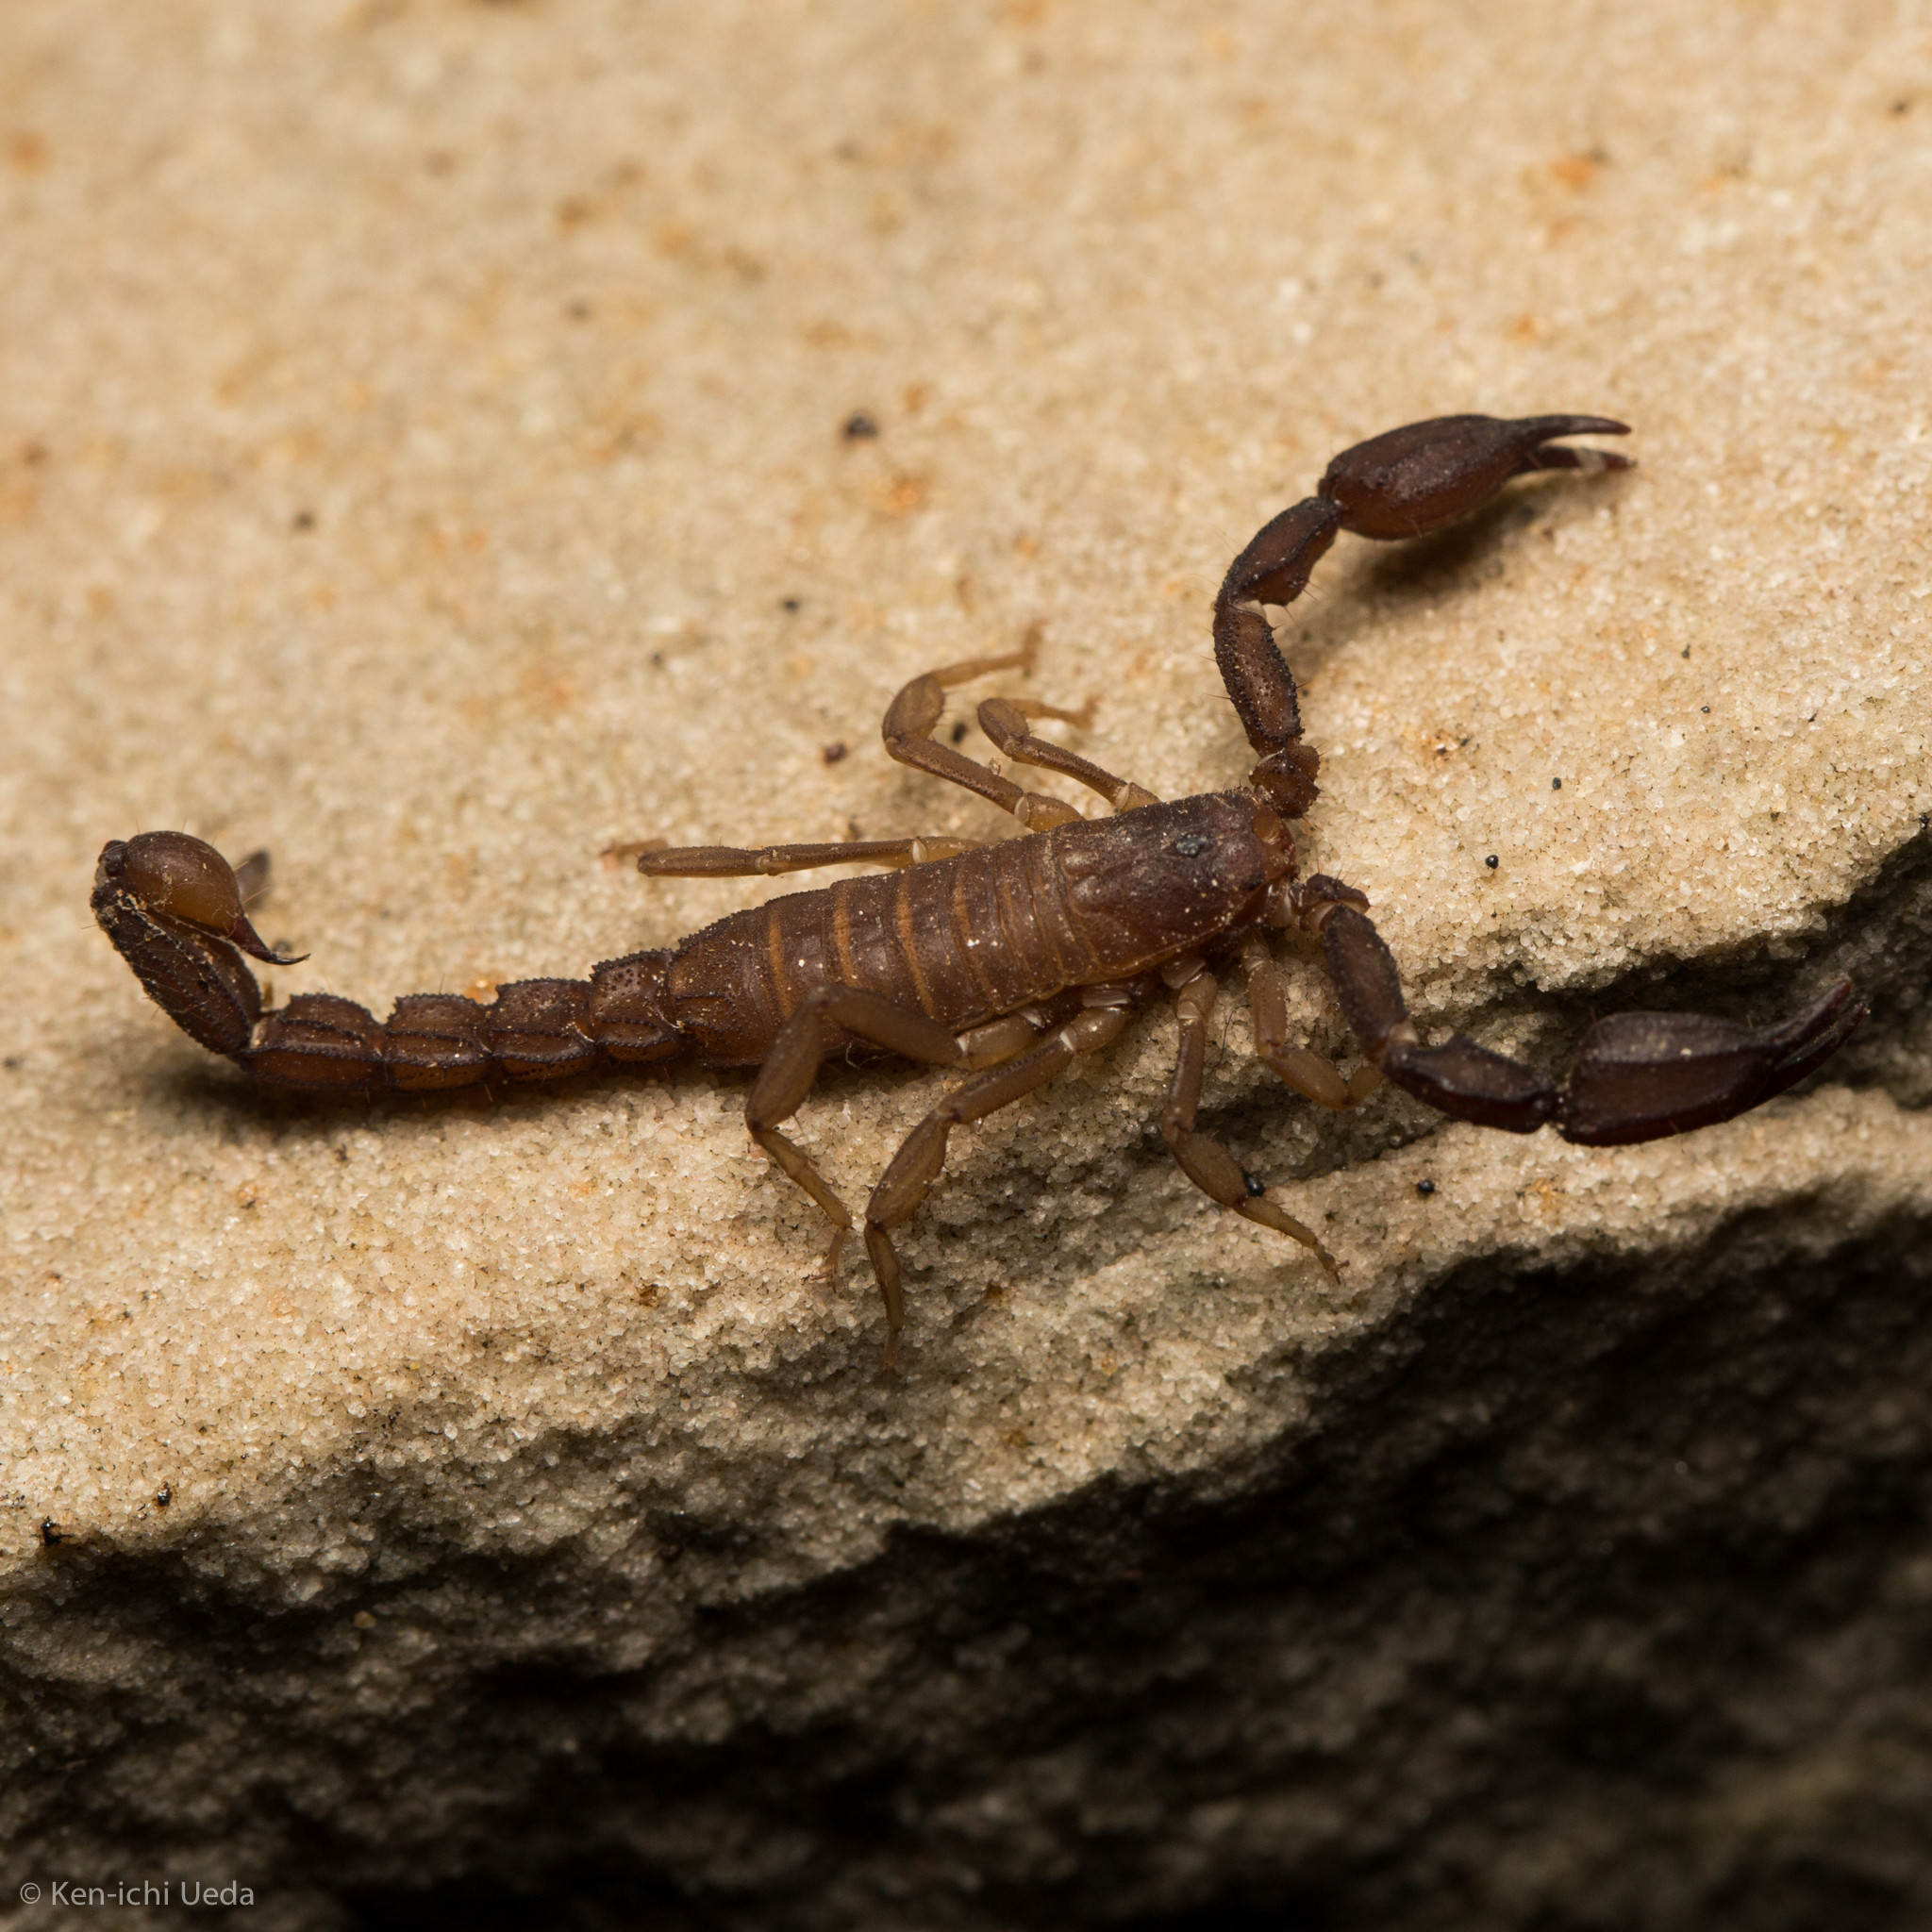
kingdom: Animalia
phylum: Arthropoda
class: Arachnida
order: Scorpiones
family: Vaejovidae
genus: Pseudouroctonus
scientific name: Pseudouroctonus santarita
